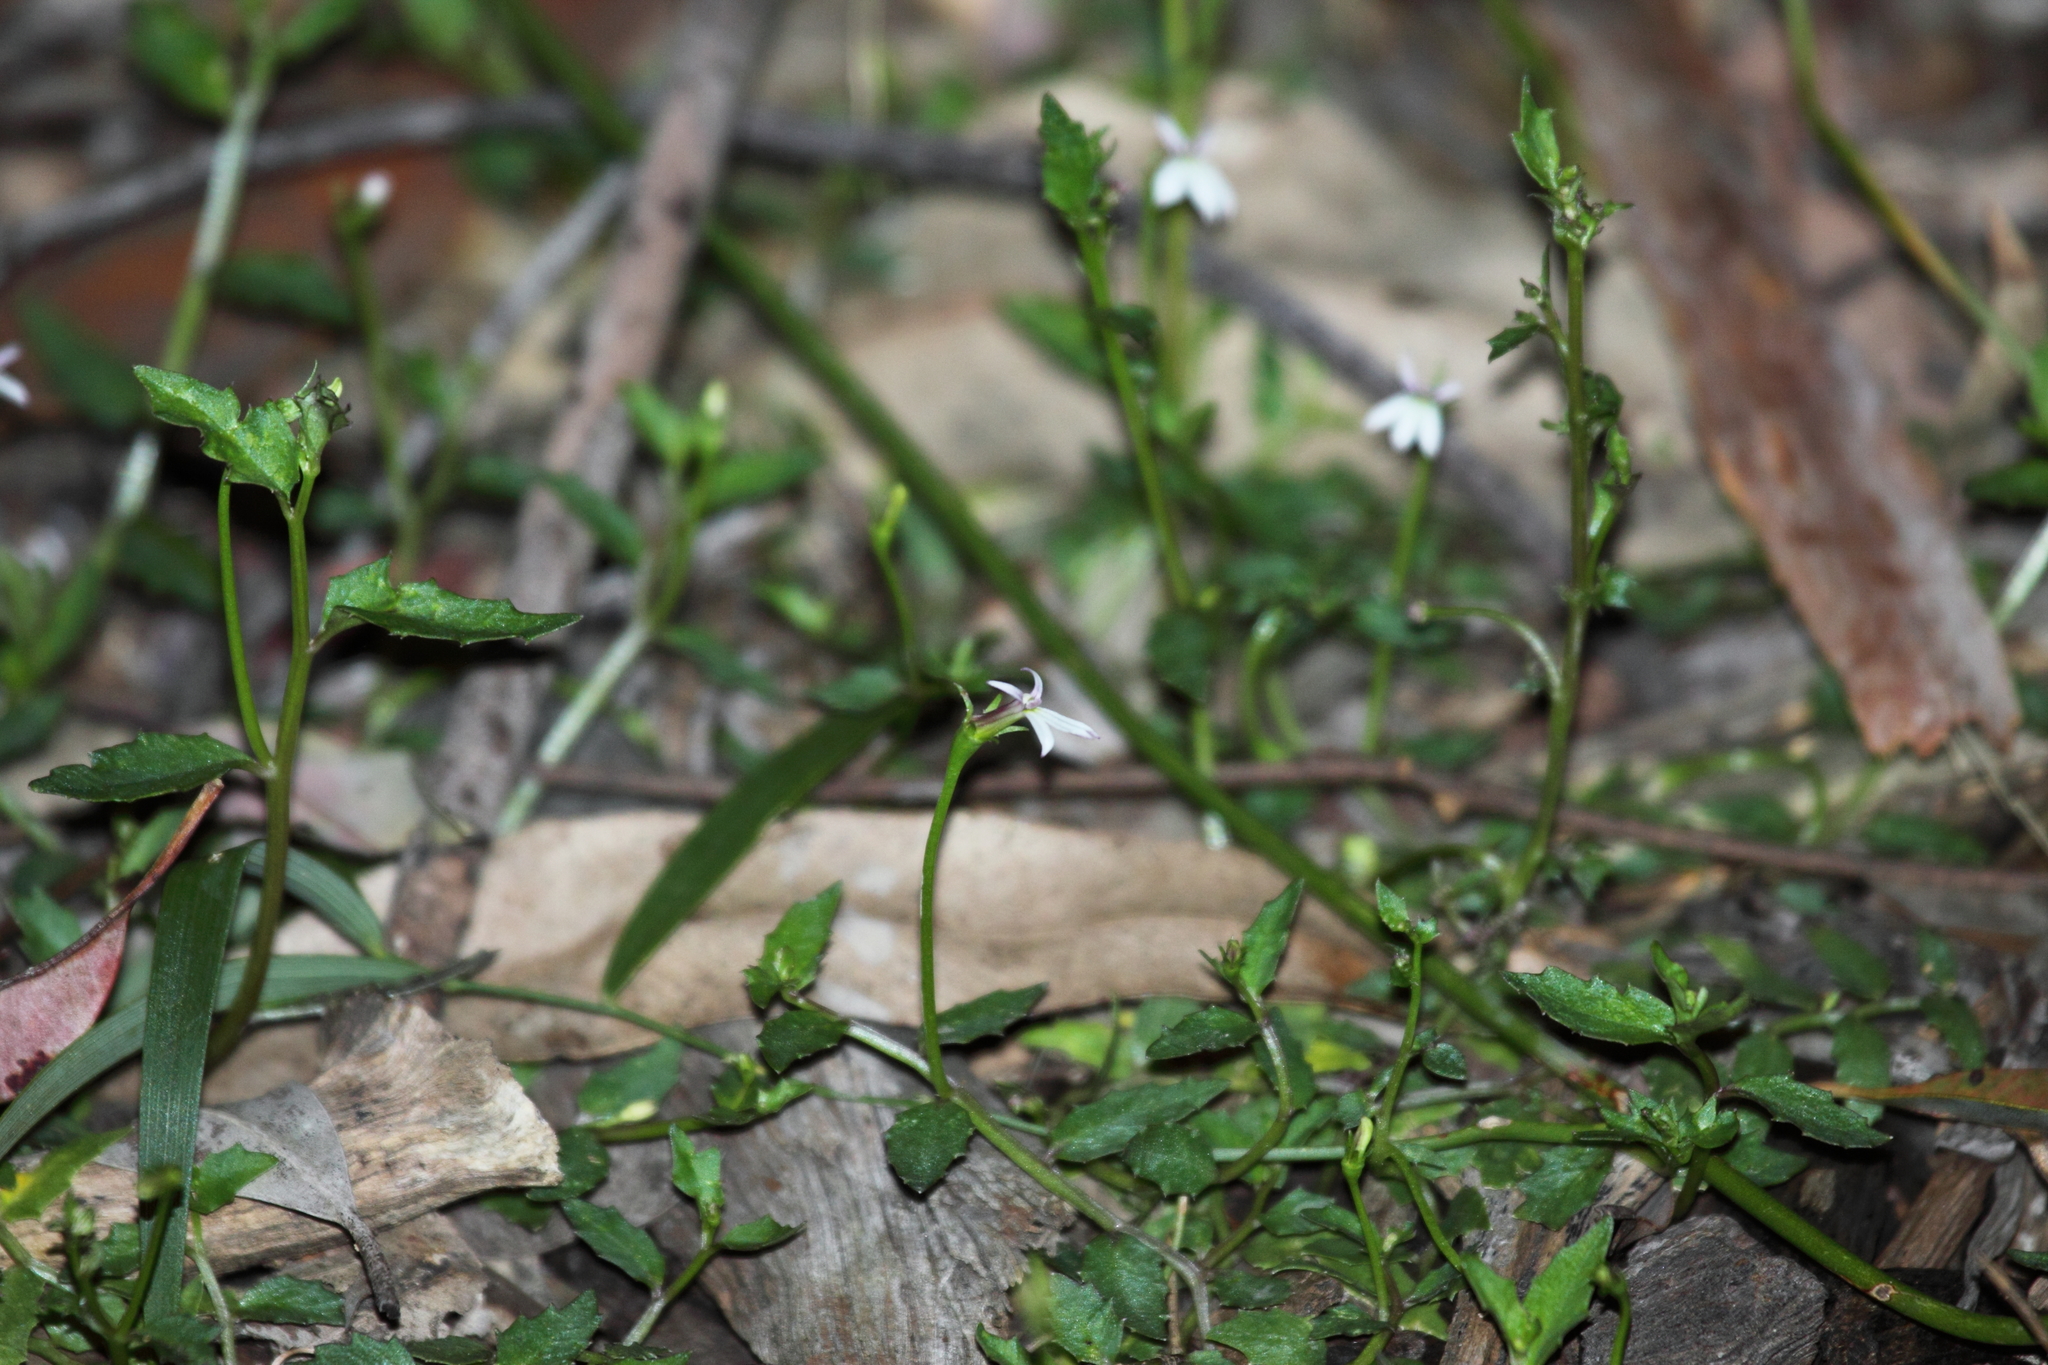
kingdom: Plantae
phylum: Tracheophyta
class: Magnoliopsida
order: Asterales
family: Campanulaceae
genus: Lobelia
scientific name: Lobelia purpurascens
